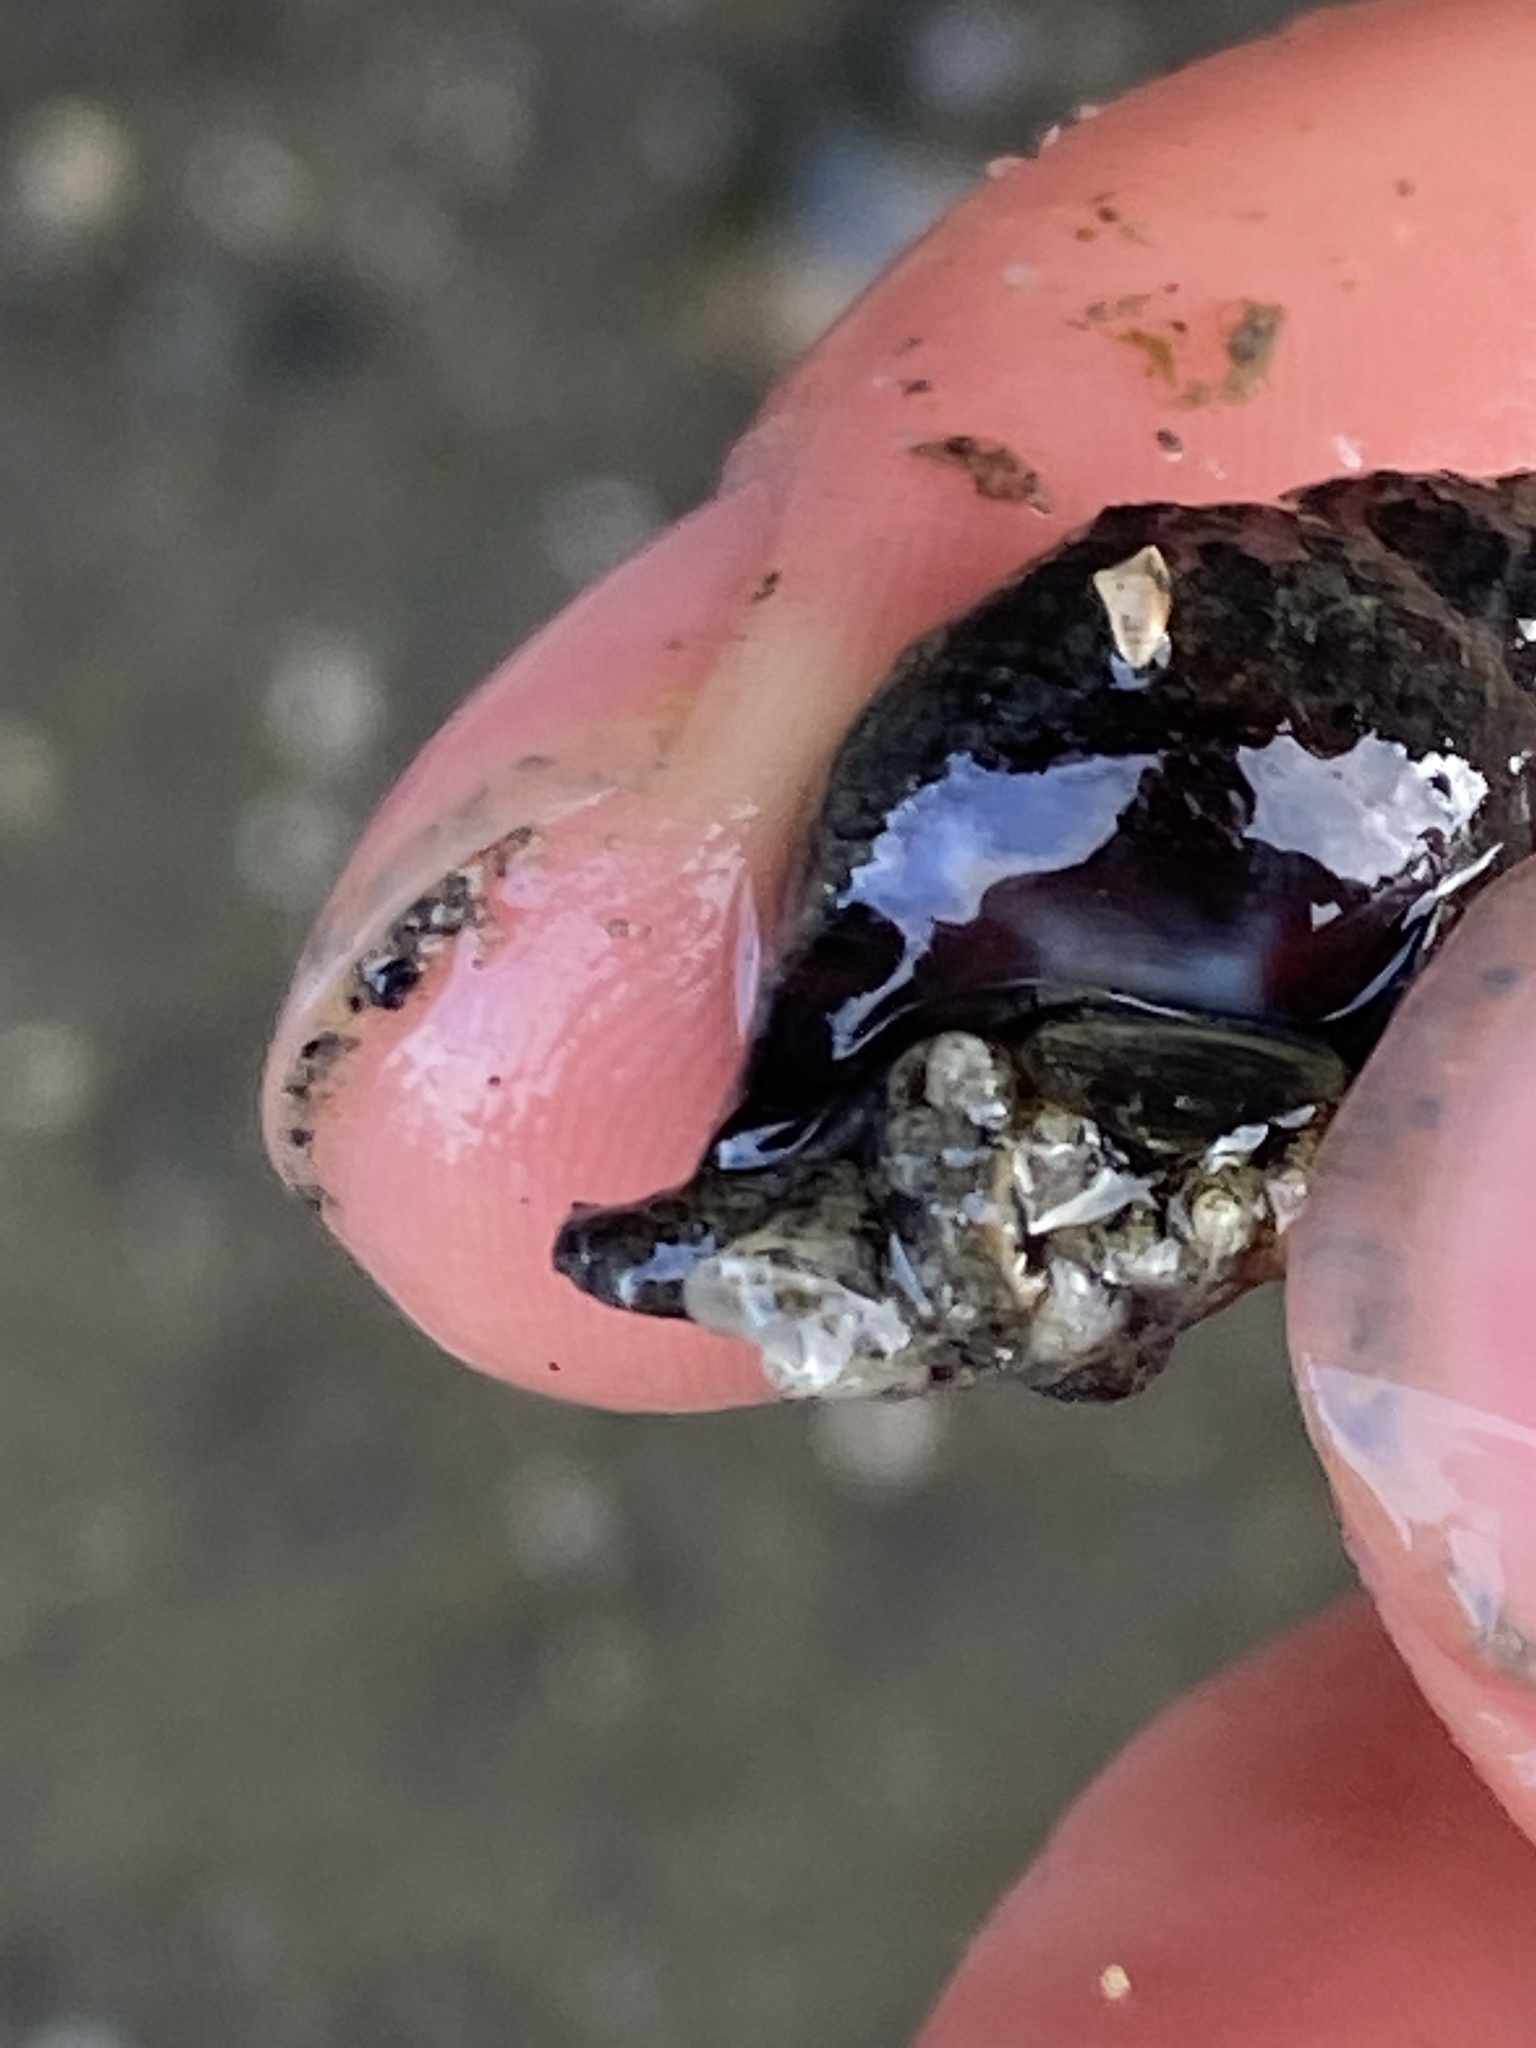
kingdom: Animalia
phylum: Mollusca
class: Gastropoda
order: Neogastropoda
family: Nassariidae
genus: Ilyanassa
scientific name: Ilyanassa obsoleta
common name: Eastern mudsnail
